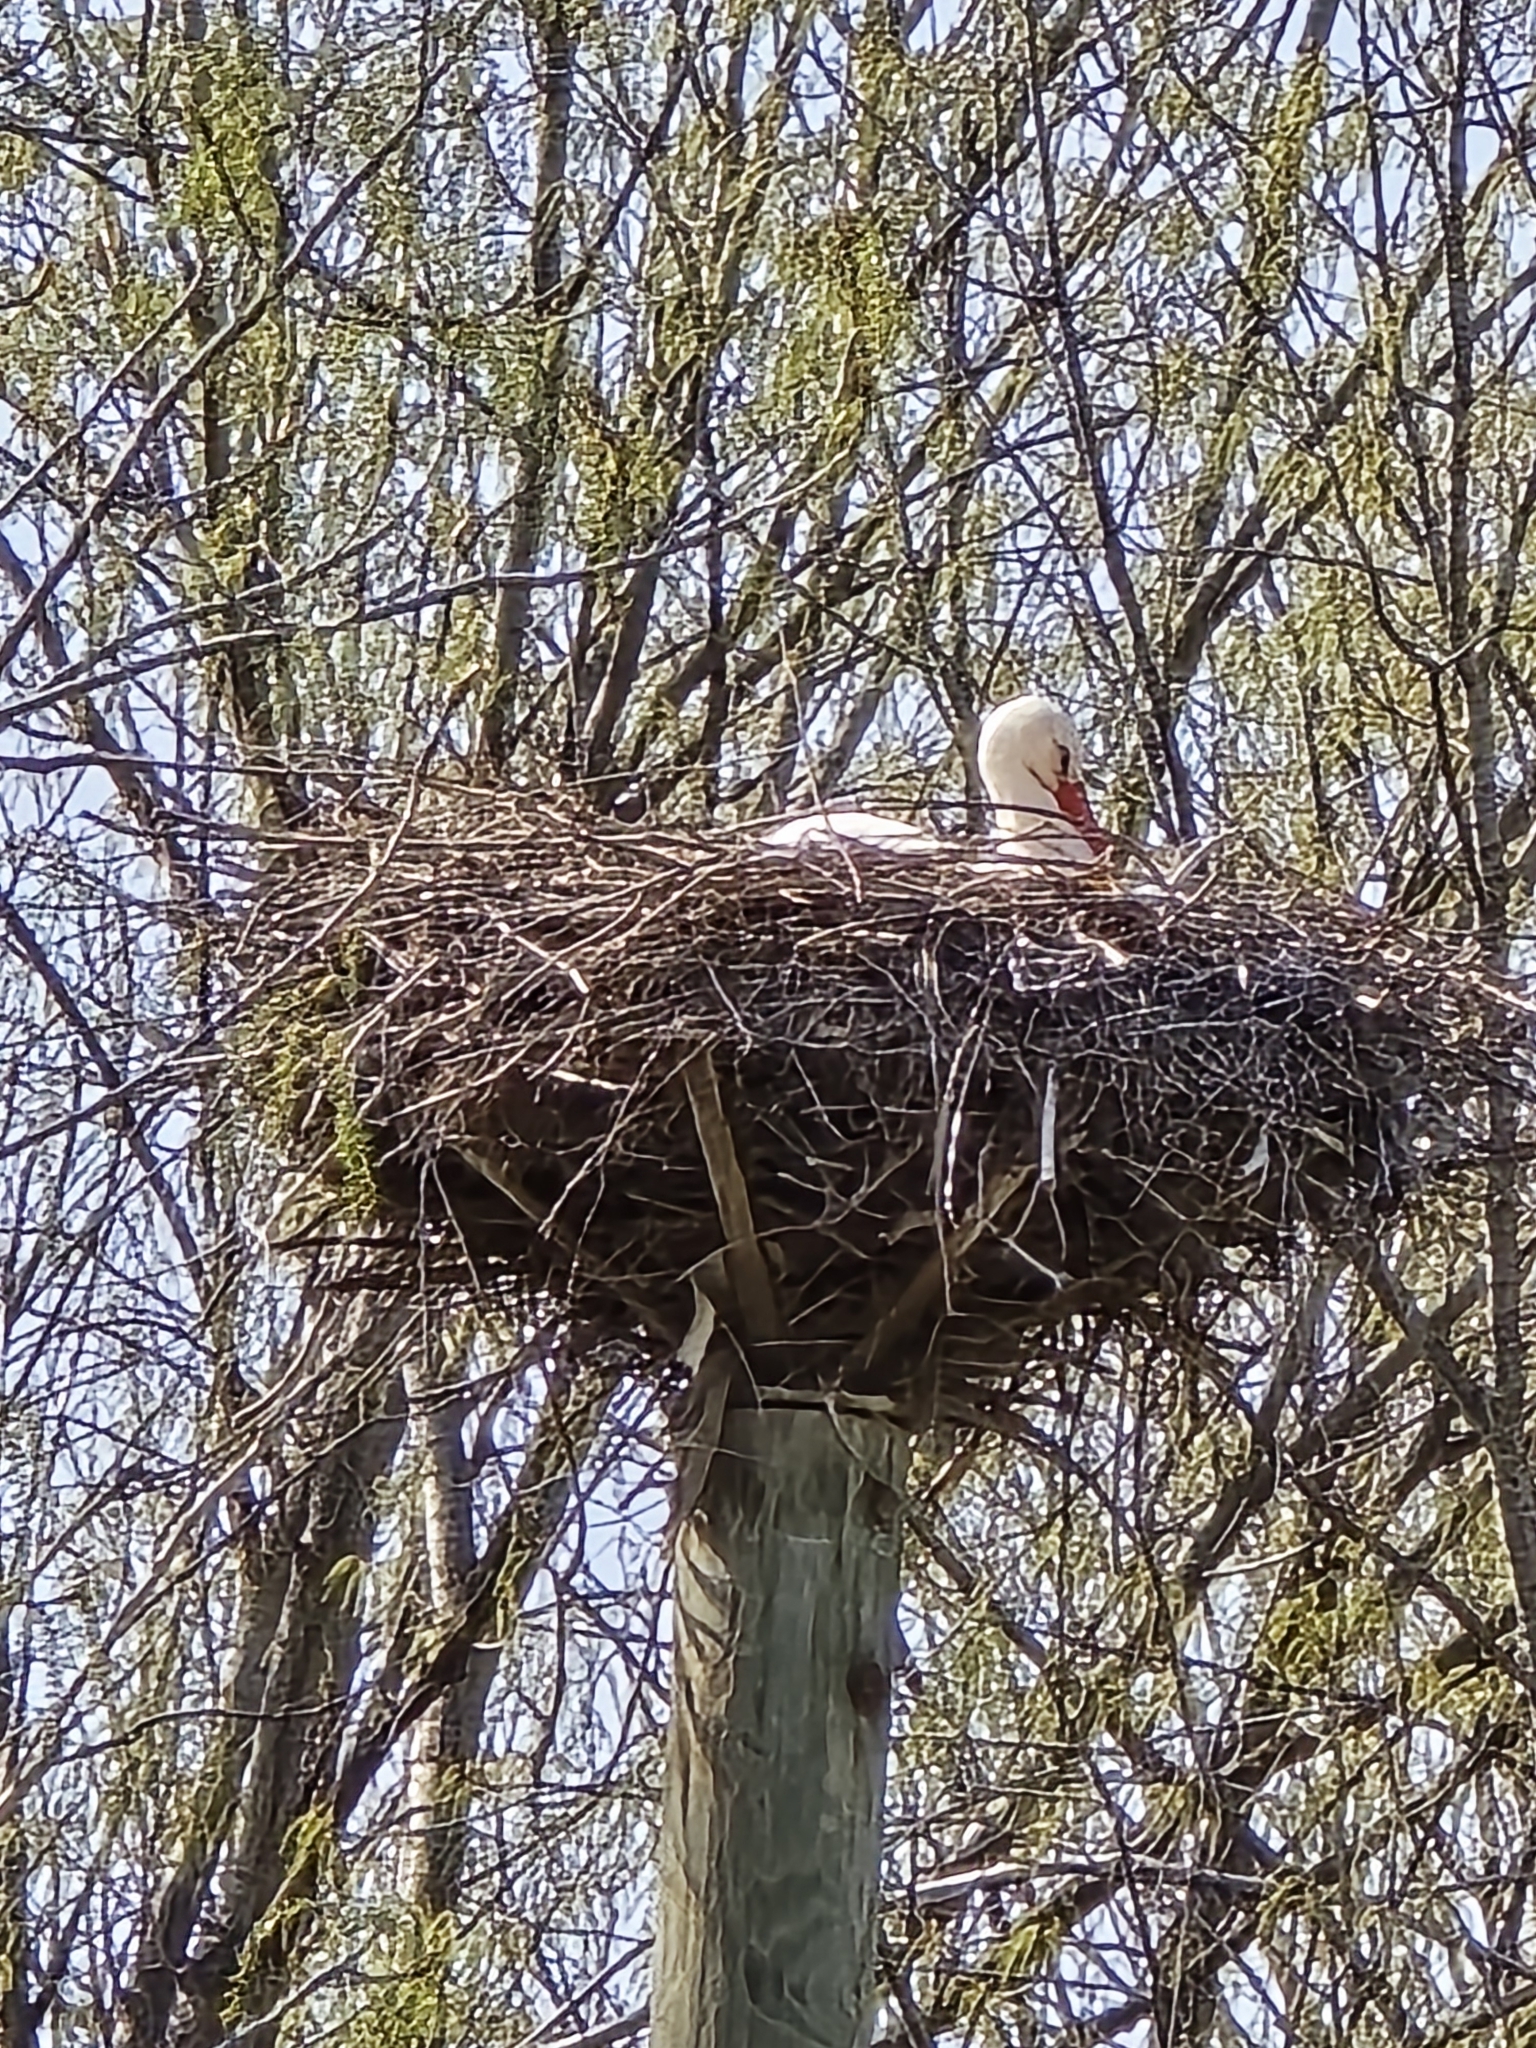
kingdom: Animalia
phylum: Chordata
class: Aves
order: Ciconiiformes
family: Ciconiidae
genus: Ciconia
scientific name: Ciconia ciconia
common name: White stork
